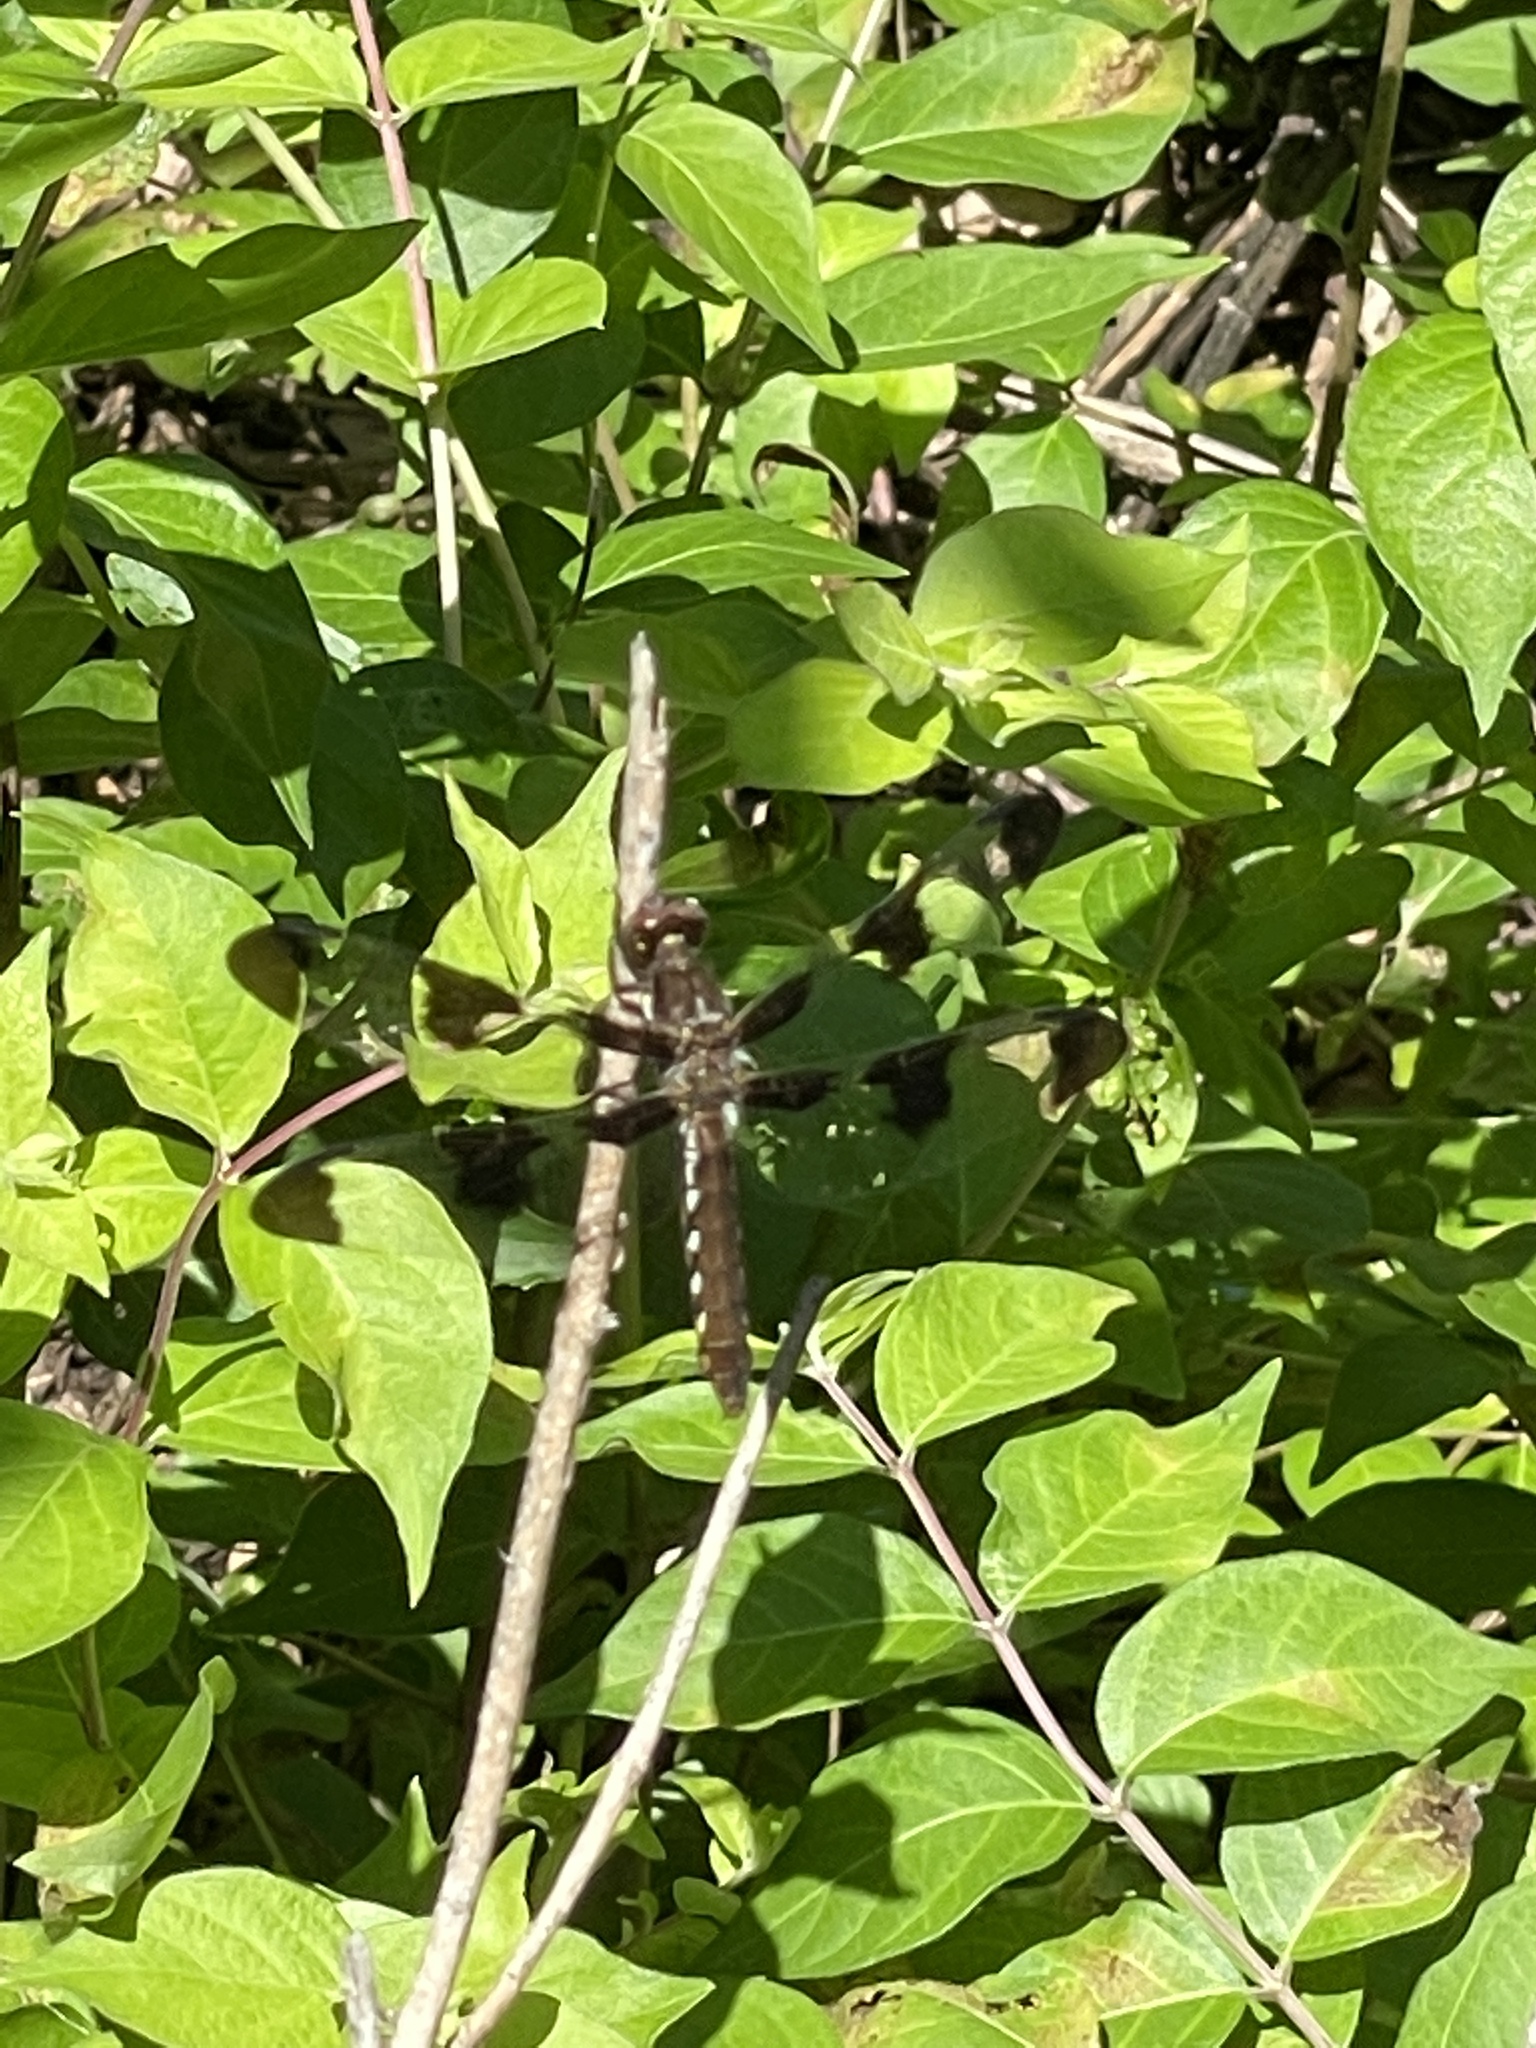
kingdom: Animalia
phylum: Arthropoda
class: Insecta
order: Odonata
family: Libellulidae
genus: Plathemis
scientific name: Plathemis lydia
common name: Common whitetail
